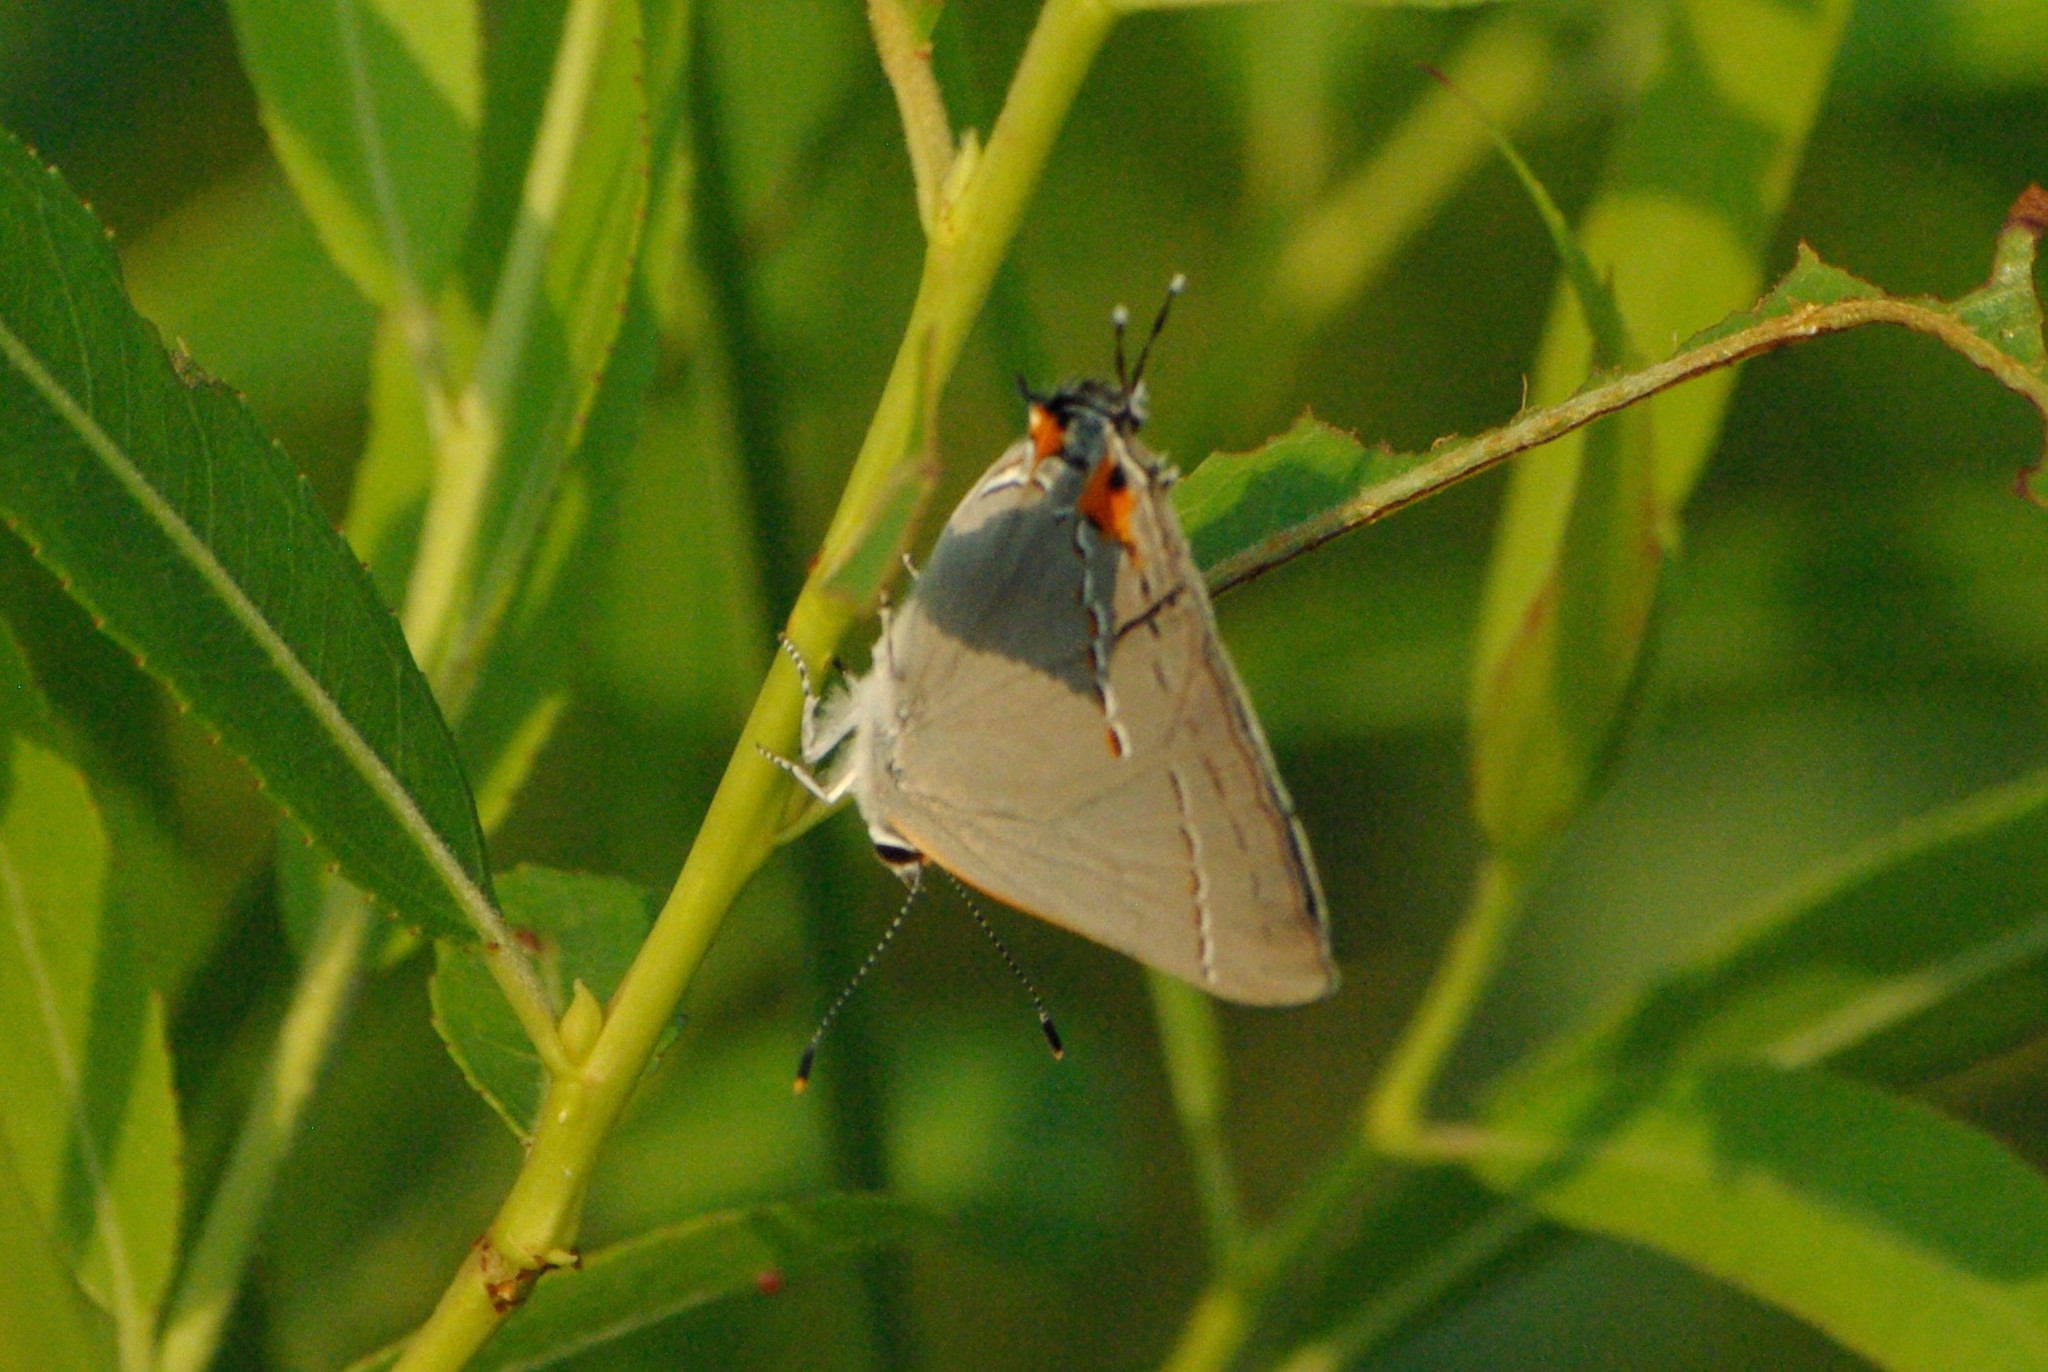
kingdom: Animalia
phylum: Arthropoda
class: Insecta
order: Lepidoptera
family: Lycaenidae
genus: Strymon
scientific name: Strymon melinus
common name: Gray hairstreak
